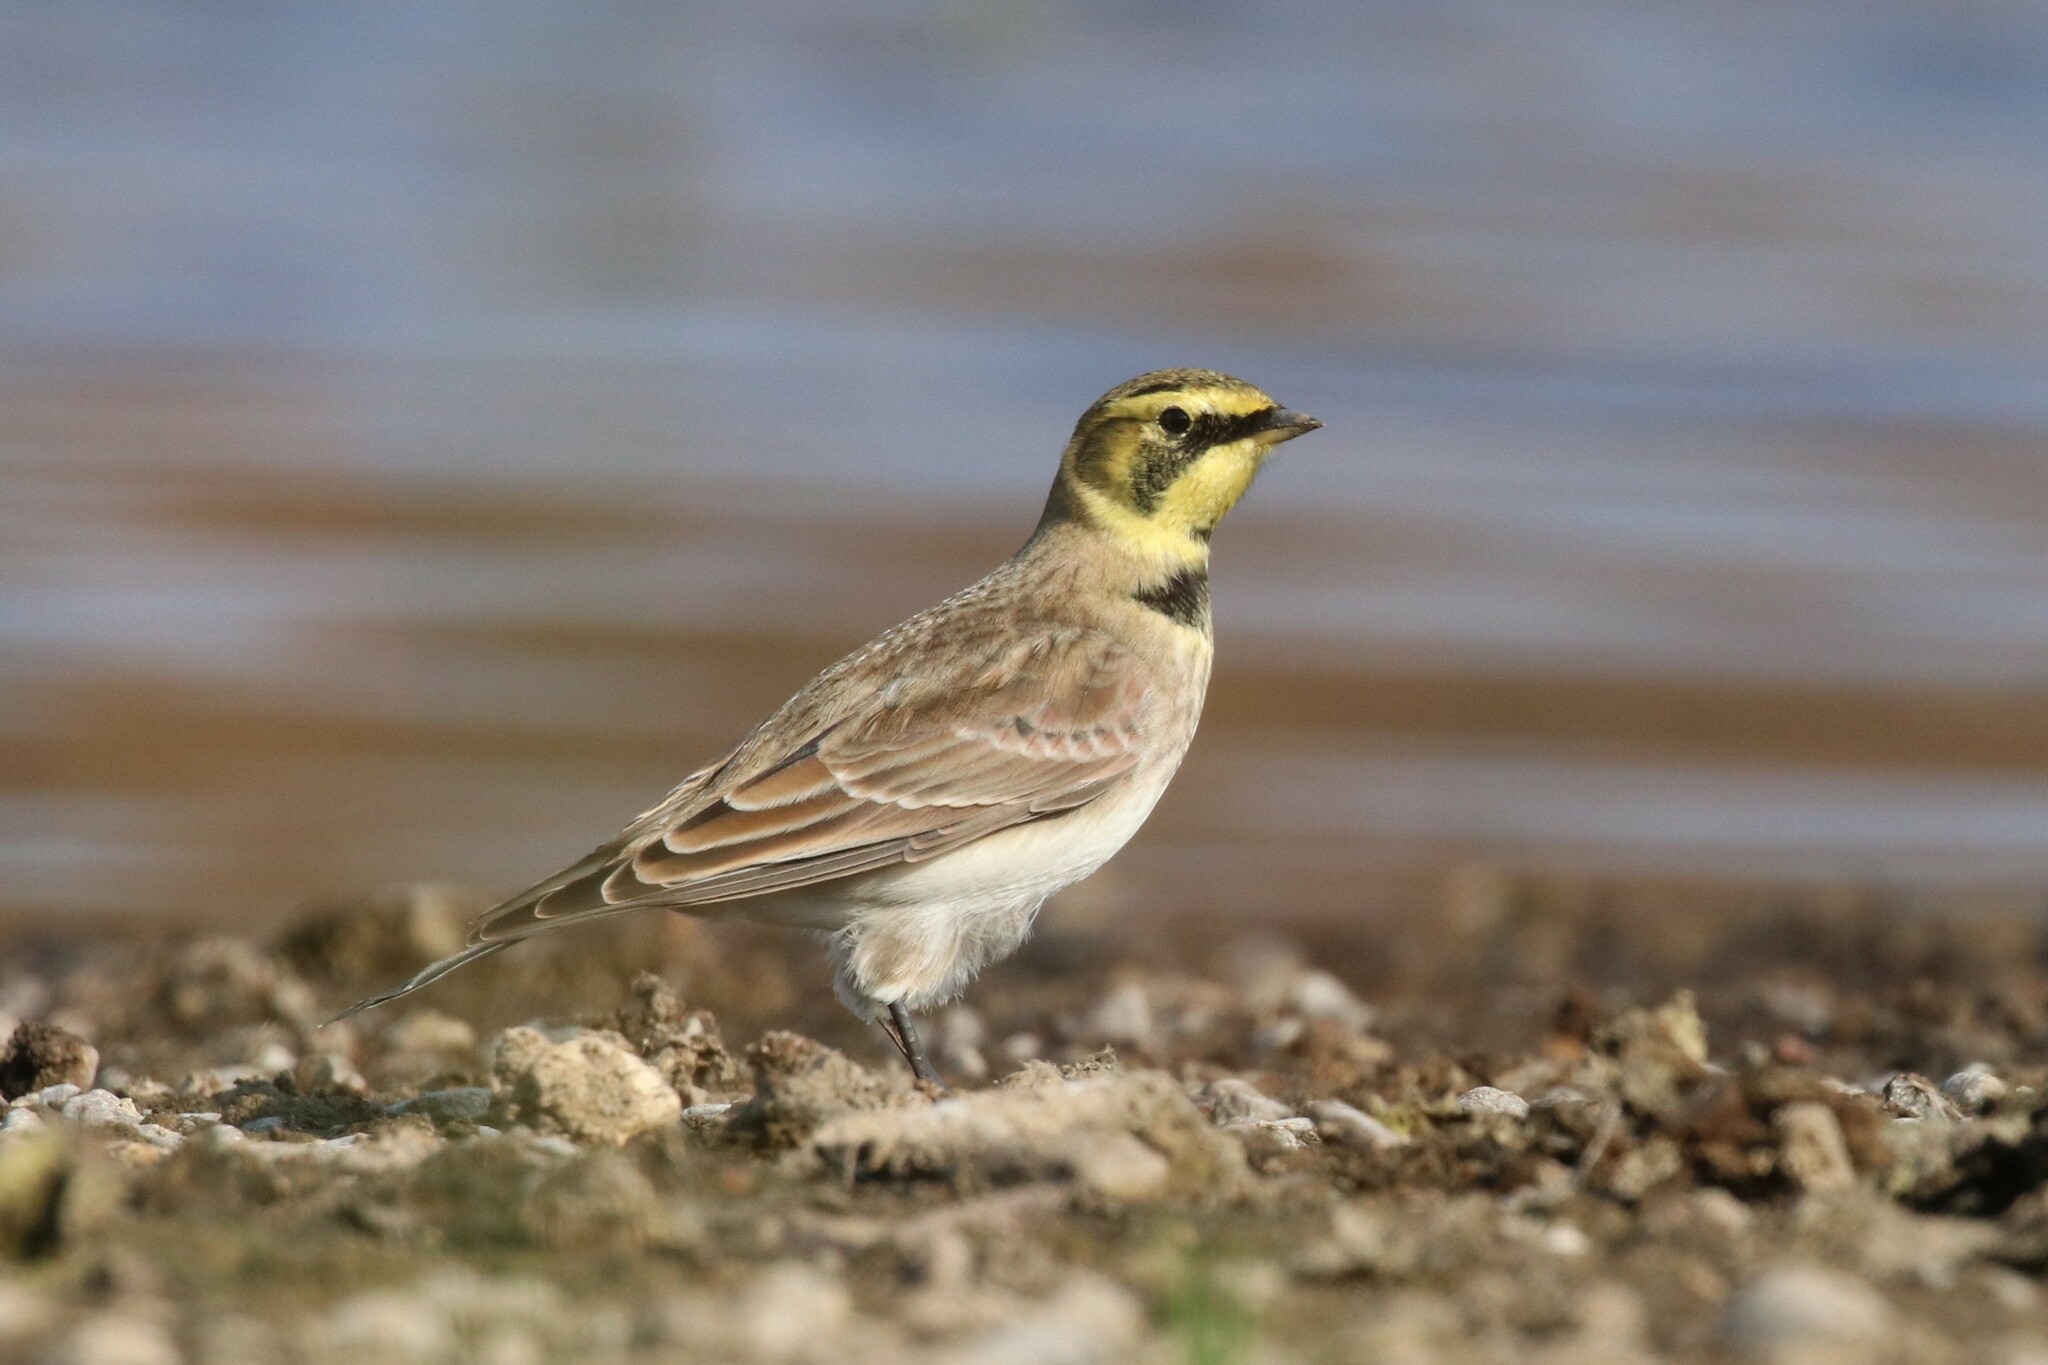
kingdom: Animalia
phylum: Chordata
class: Aves
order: Passeriformes
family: Alaudidae
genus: Eremophila
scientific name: Eremophila alpestris
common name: Horned lark
